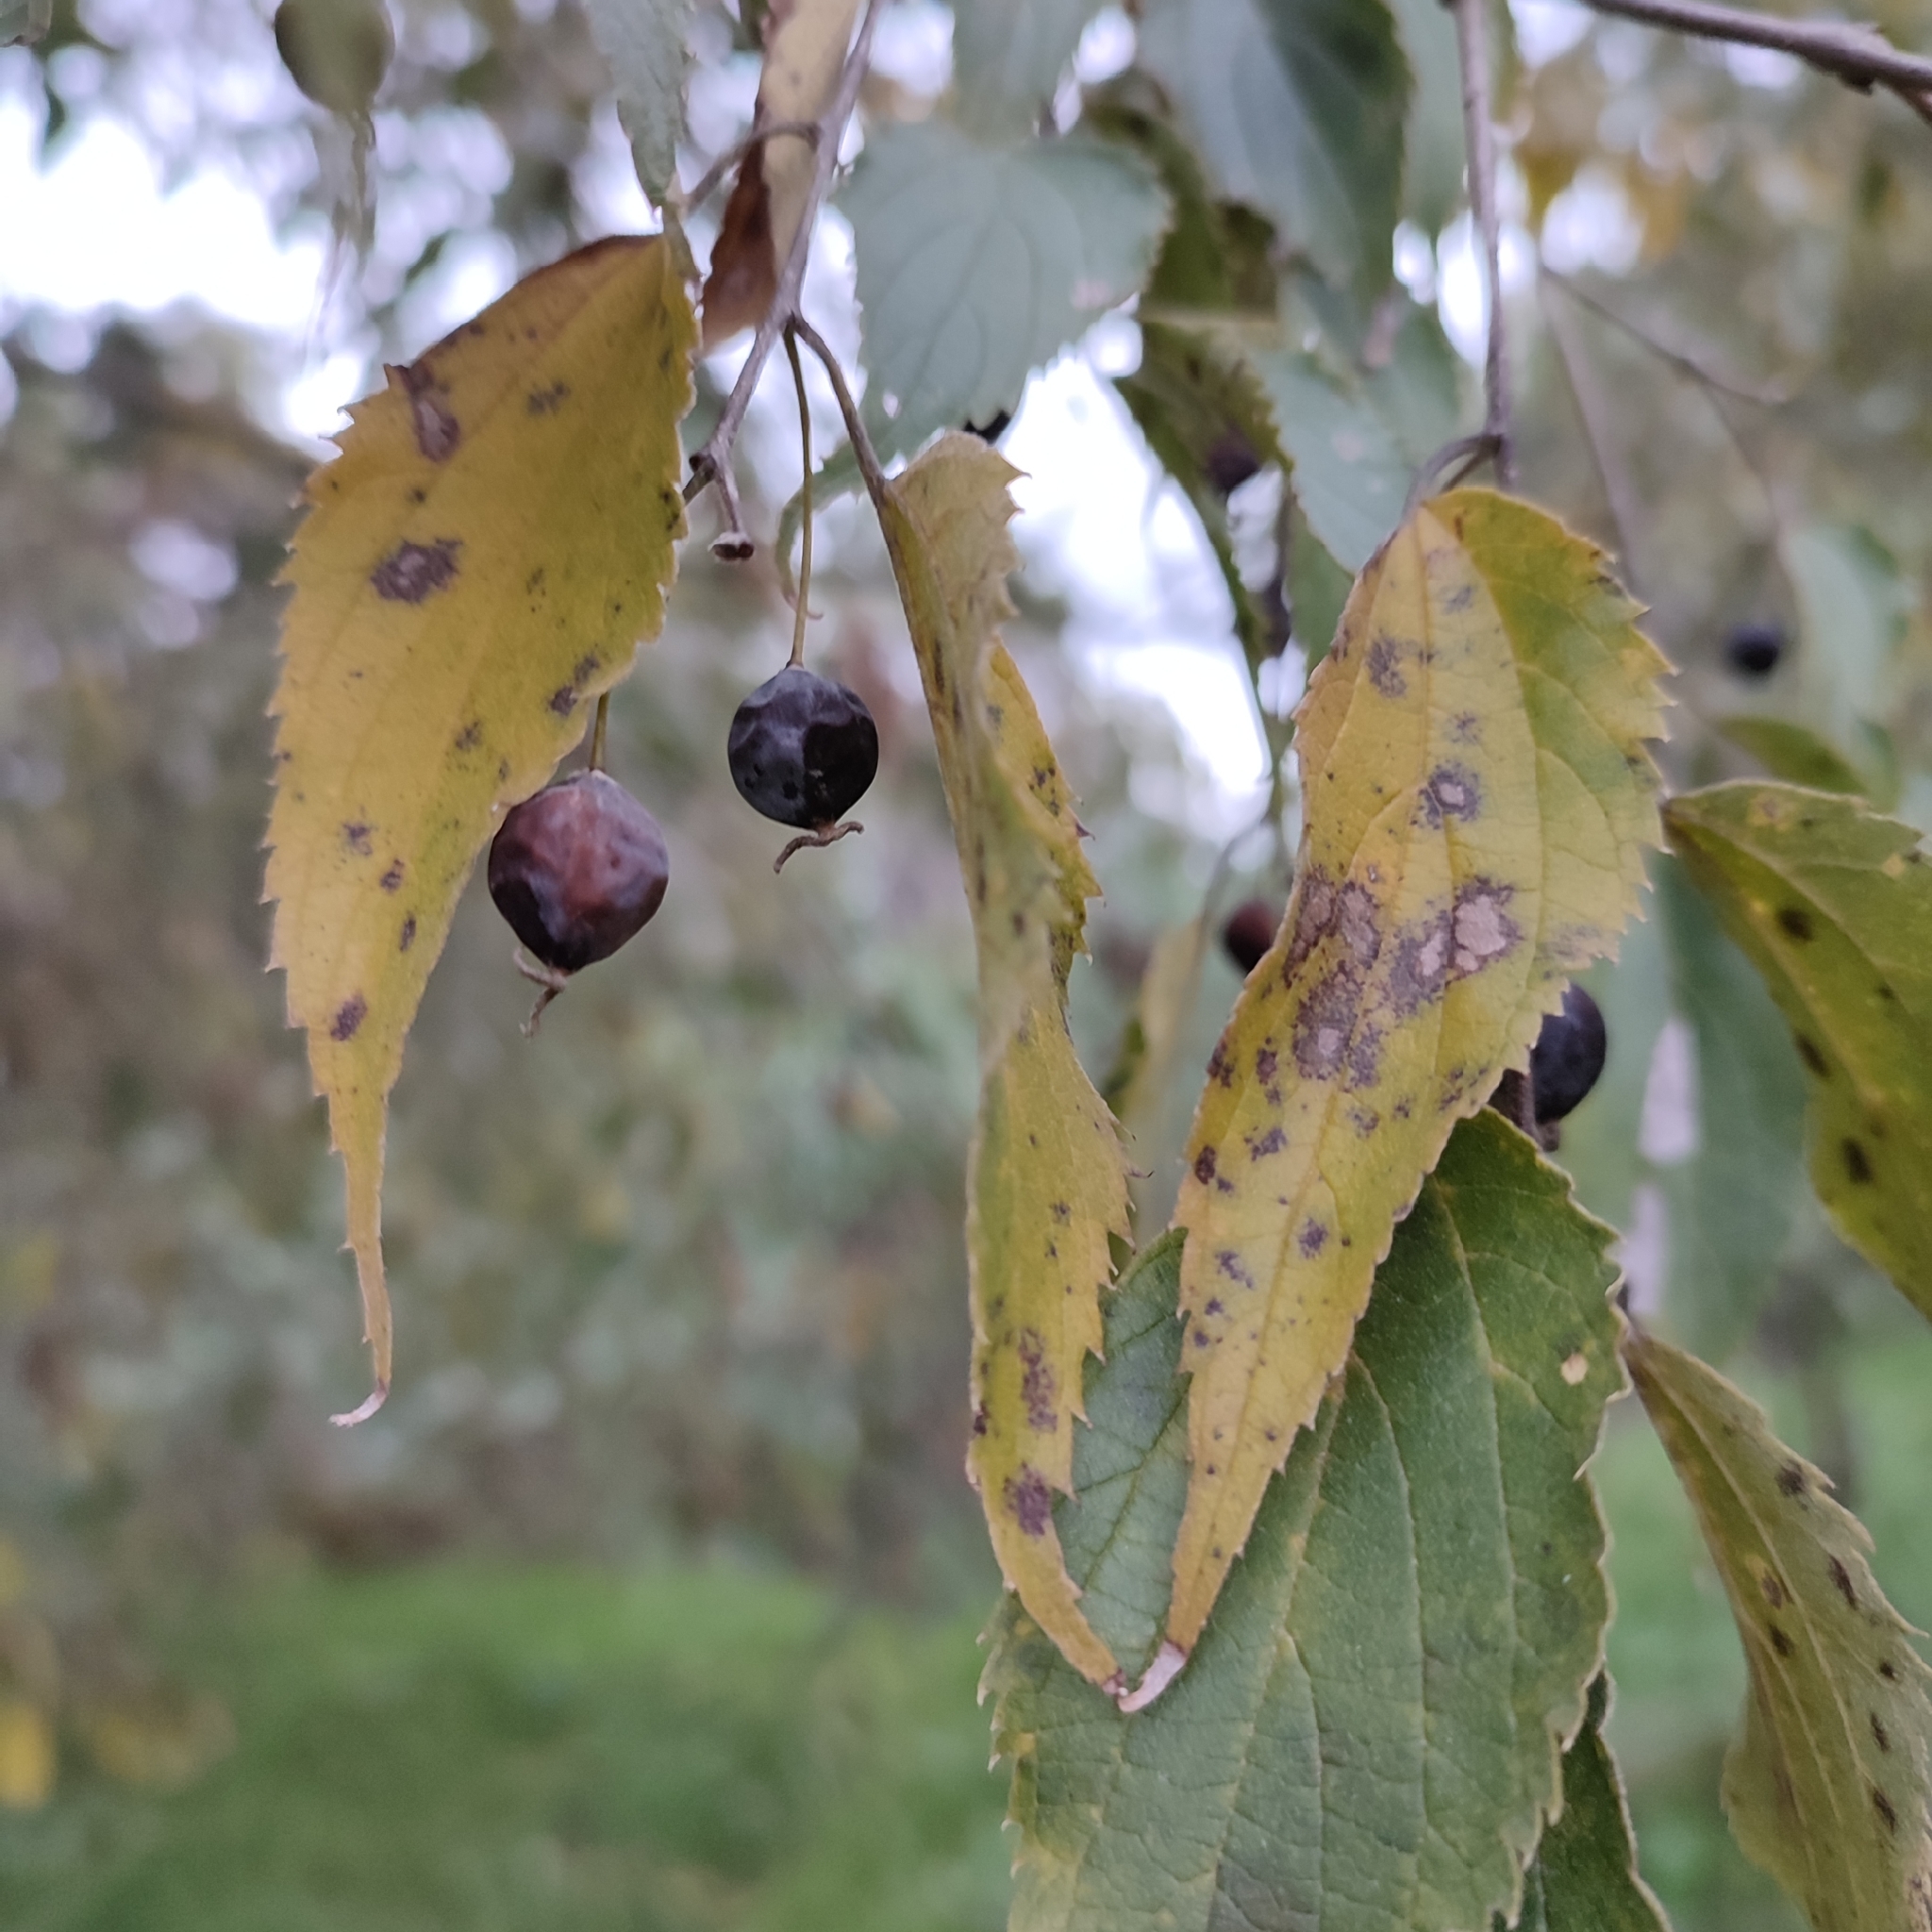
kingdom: Plantae
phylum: Tracheophyta
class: Magnoliopsida
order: Rosales
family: Cannabaceae
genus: Celtis
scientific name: Celtis australis
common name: European hackberry
